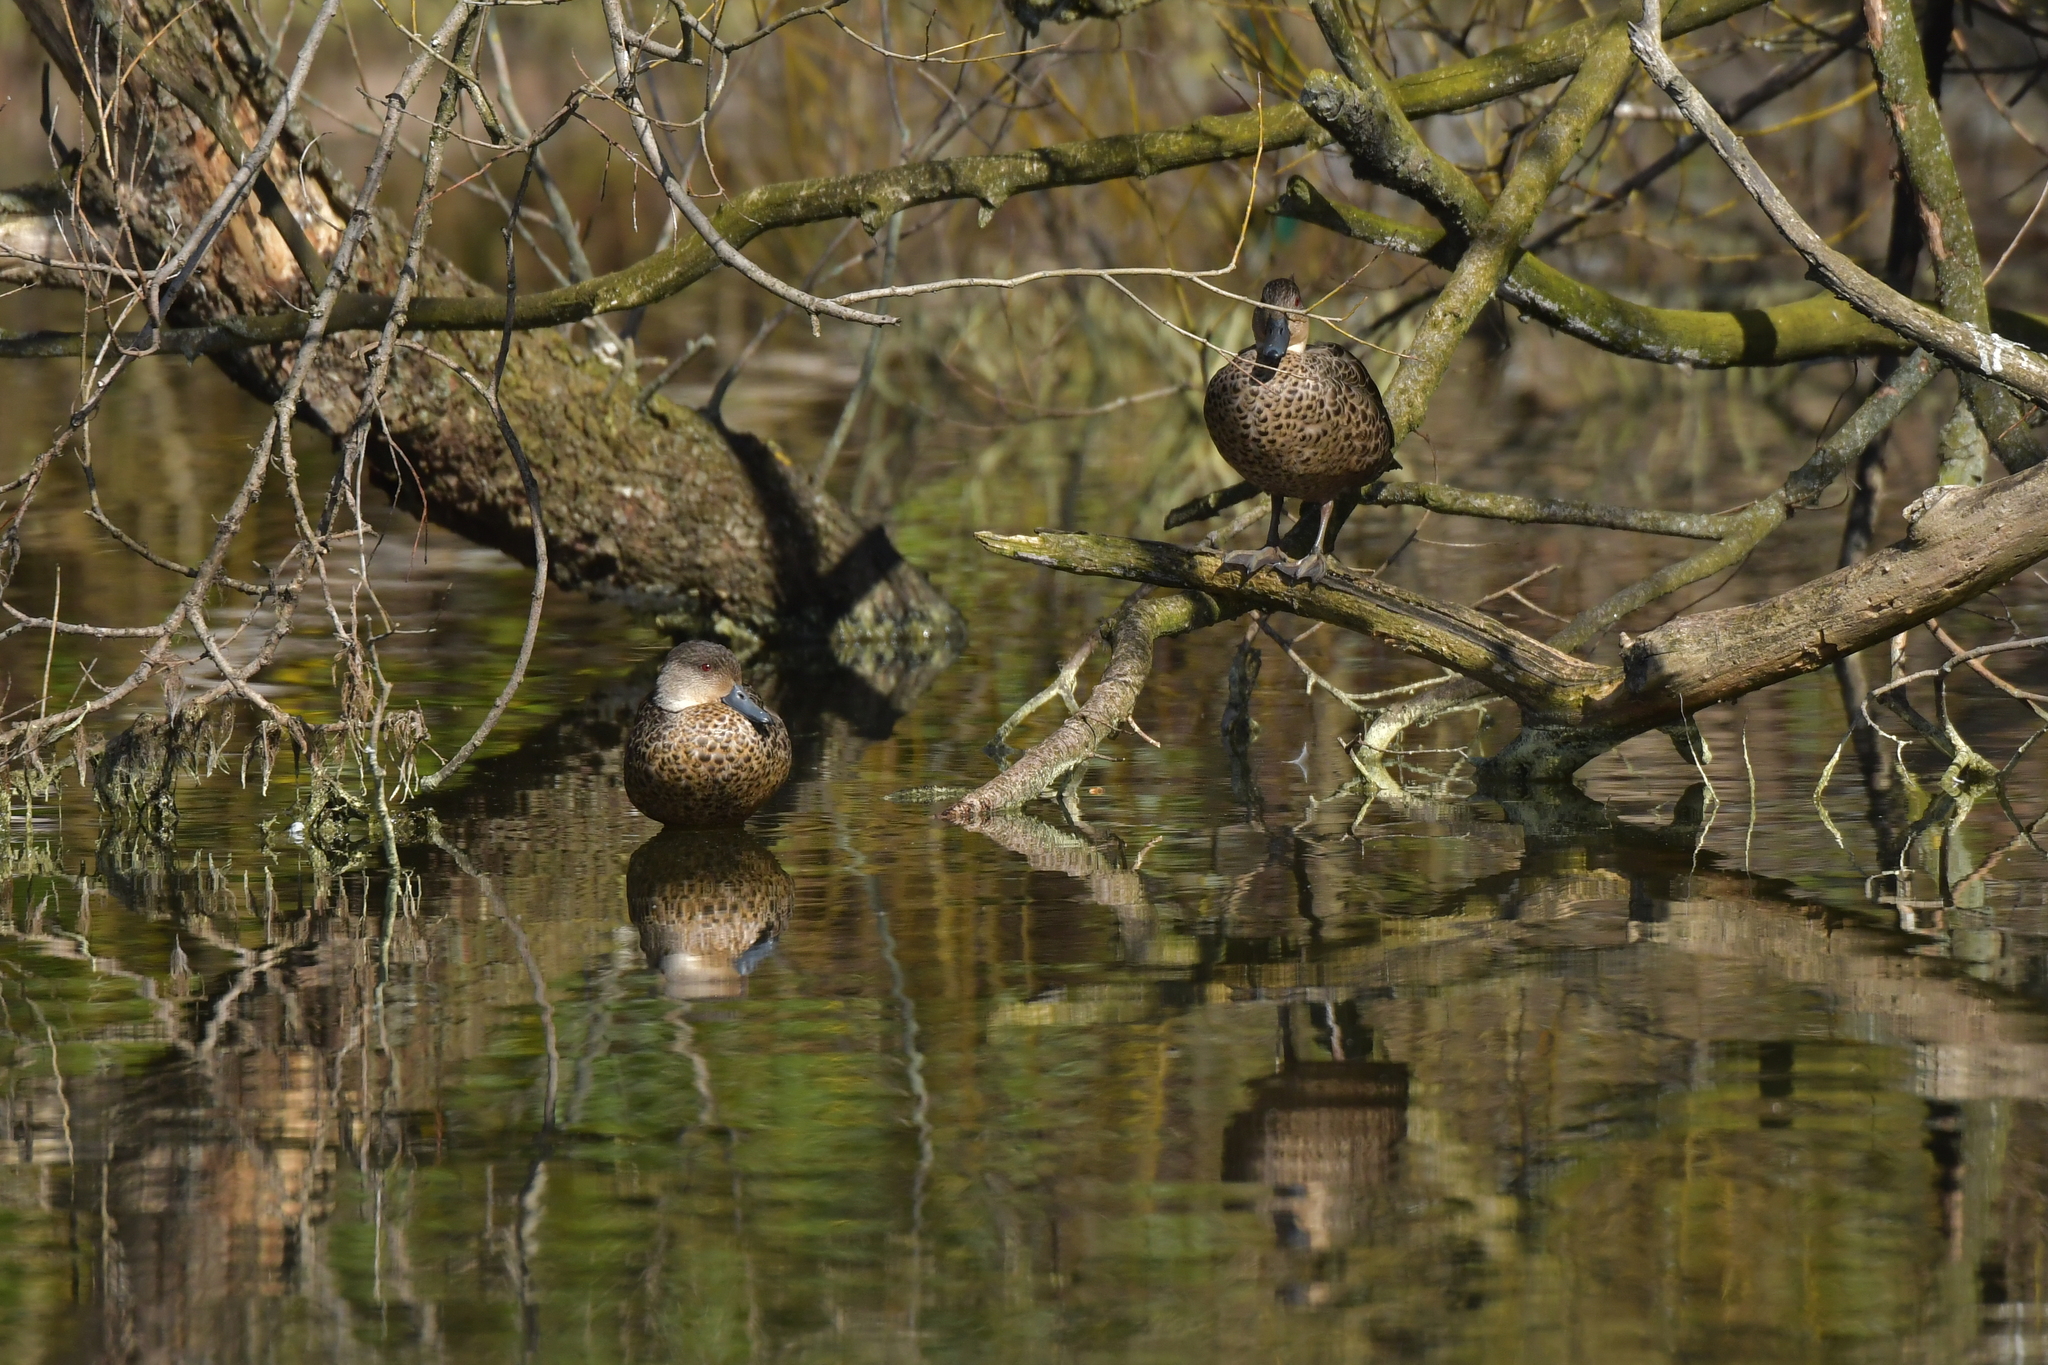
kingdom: Animalia
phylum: Chordata
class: Aves
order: Anseriformes
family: Anatidae
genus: Anas
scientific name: Anas gracilis
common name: Grey teal
